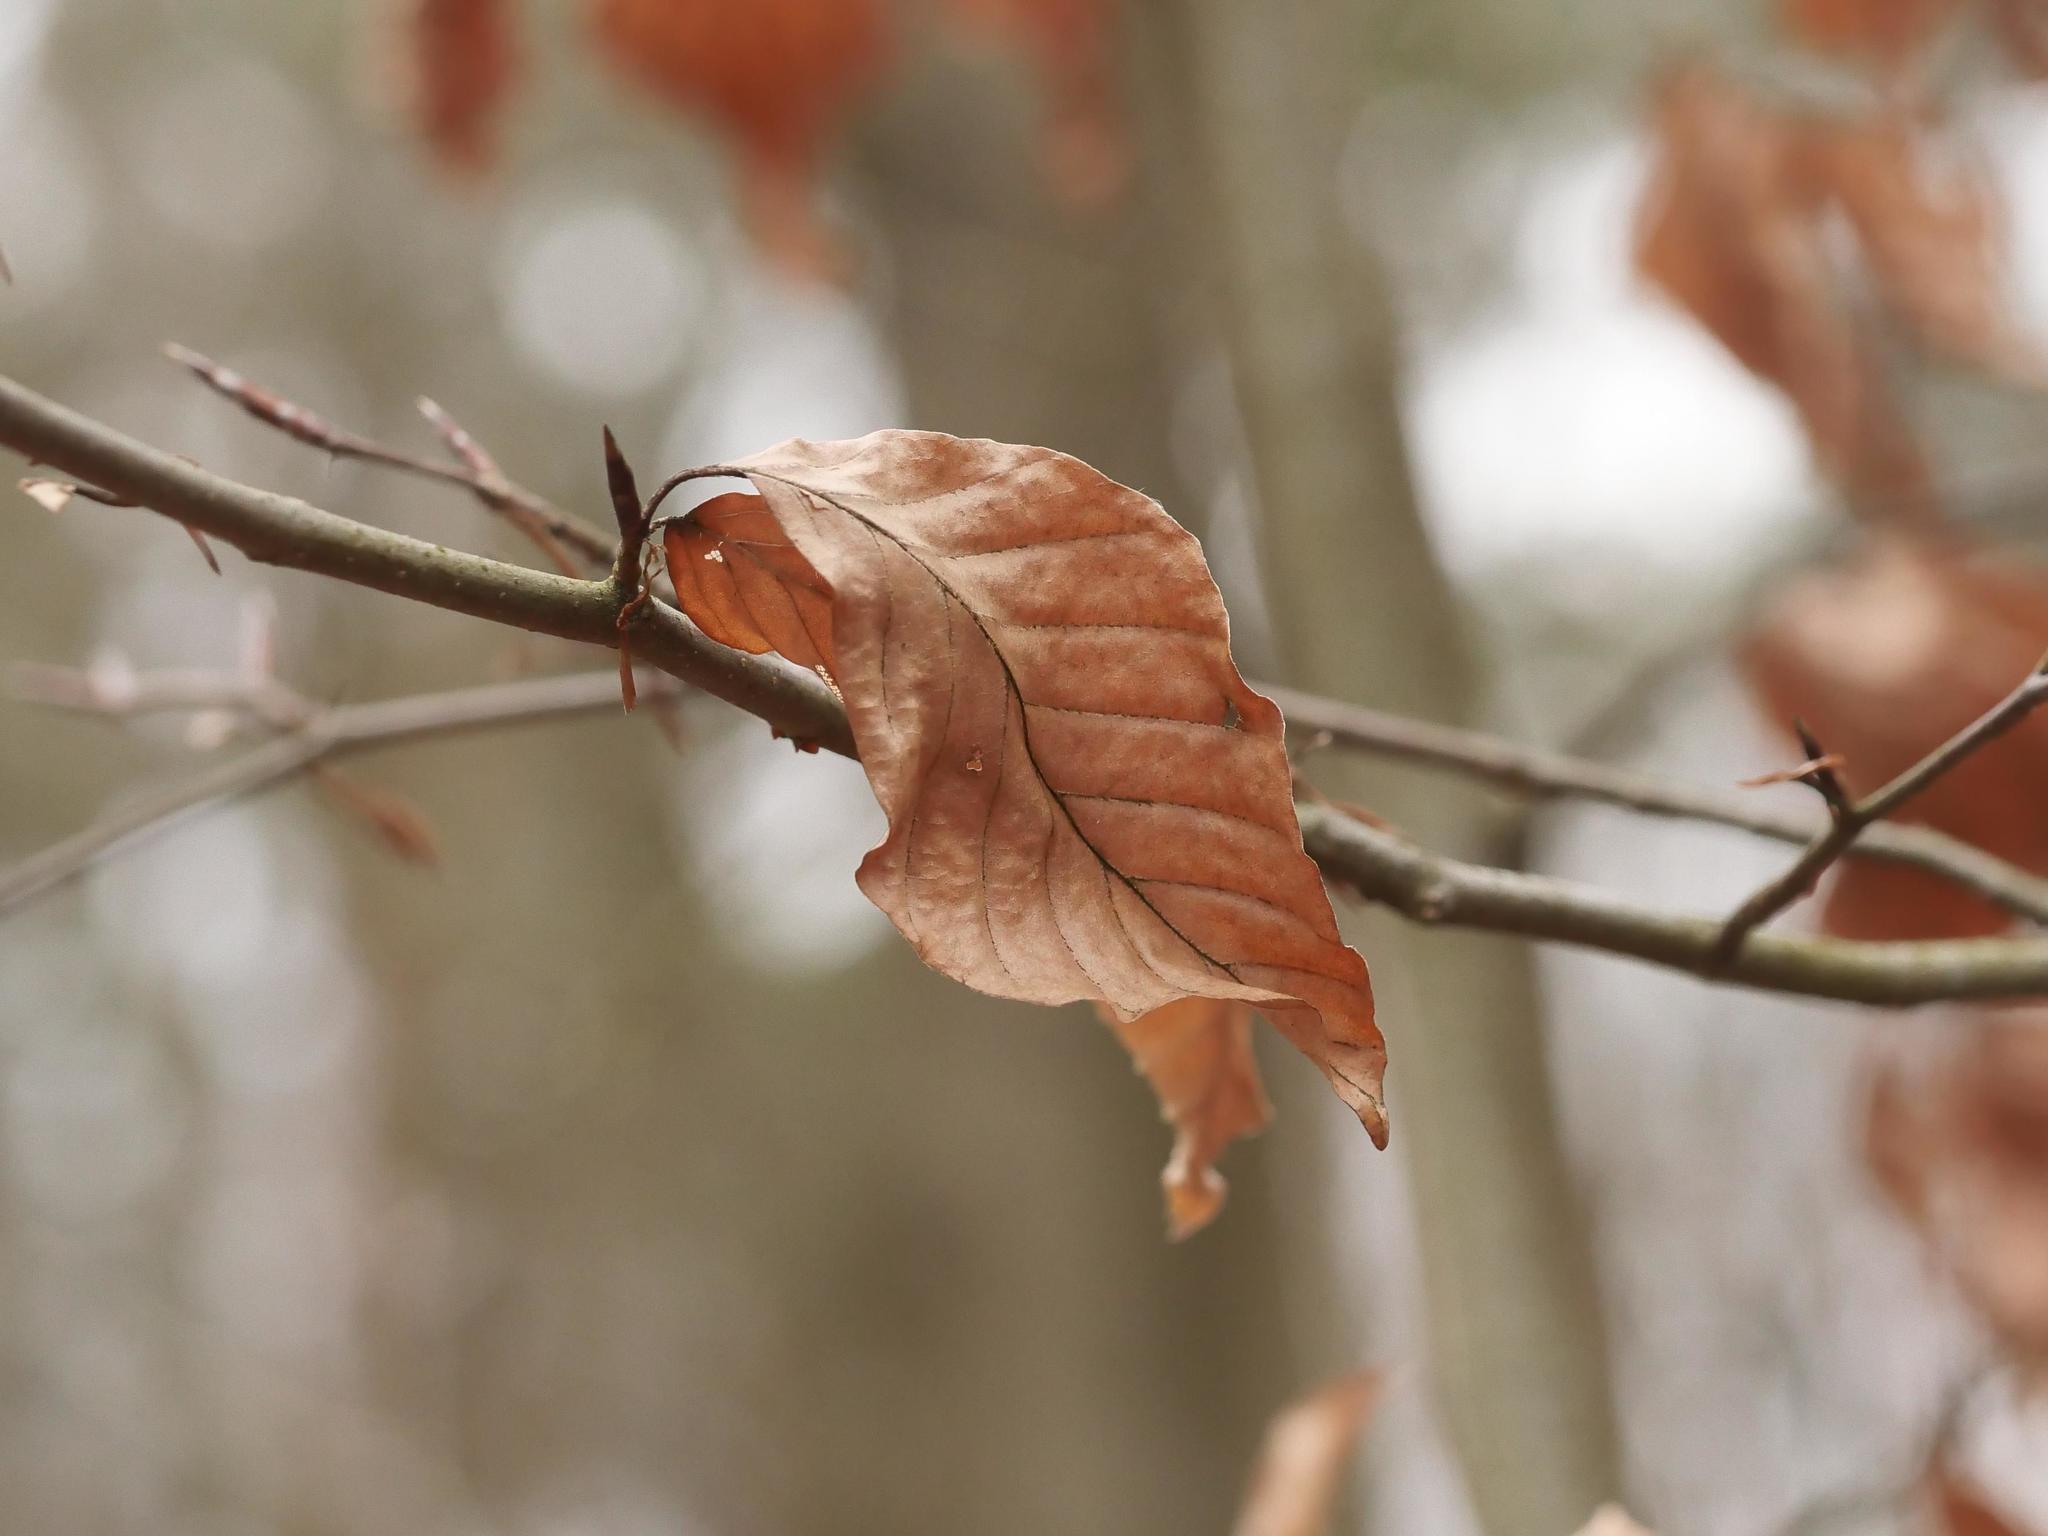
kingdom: Plantae
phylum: Tracheophyta
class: Magnoliopsida
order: Fagales
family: Fagaceae
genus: Fagus
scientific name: Fagus sylvatica
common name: Beech
